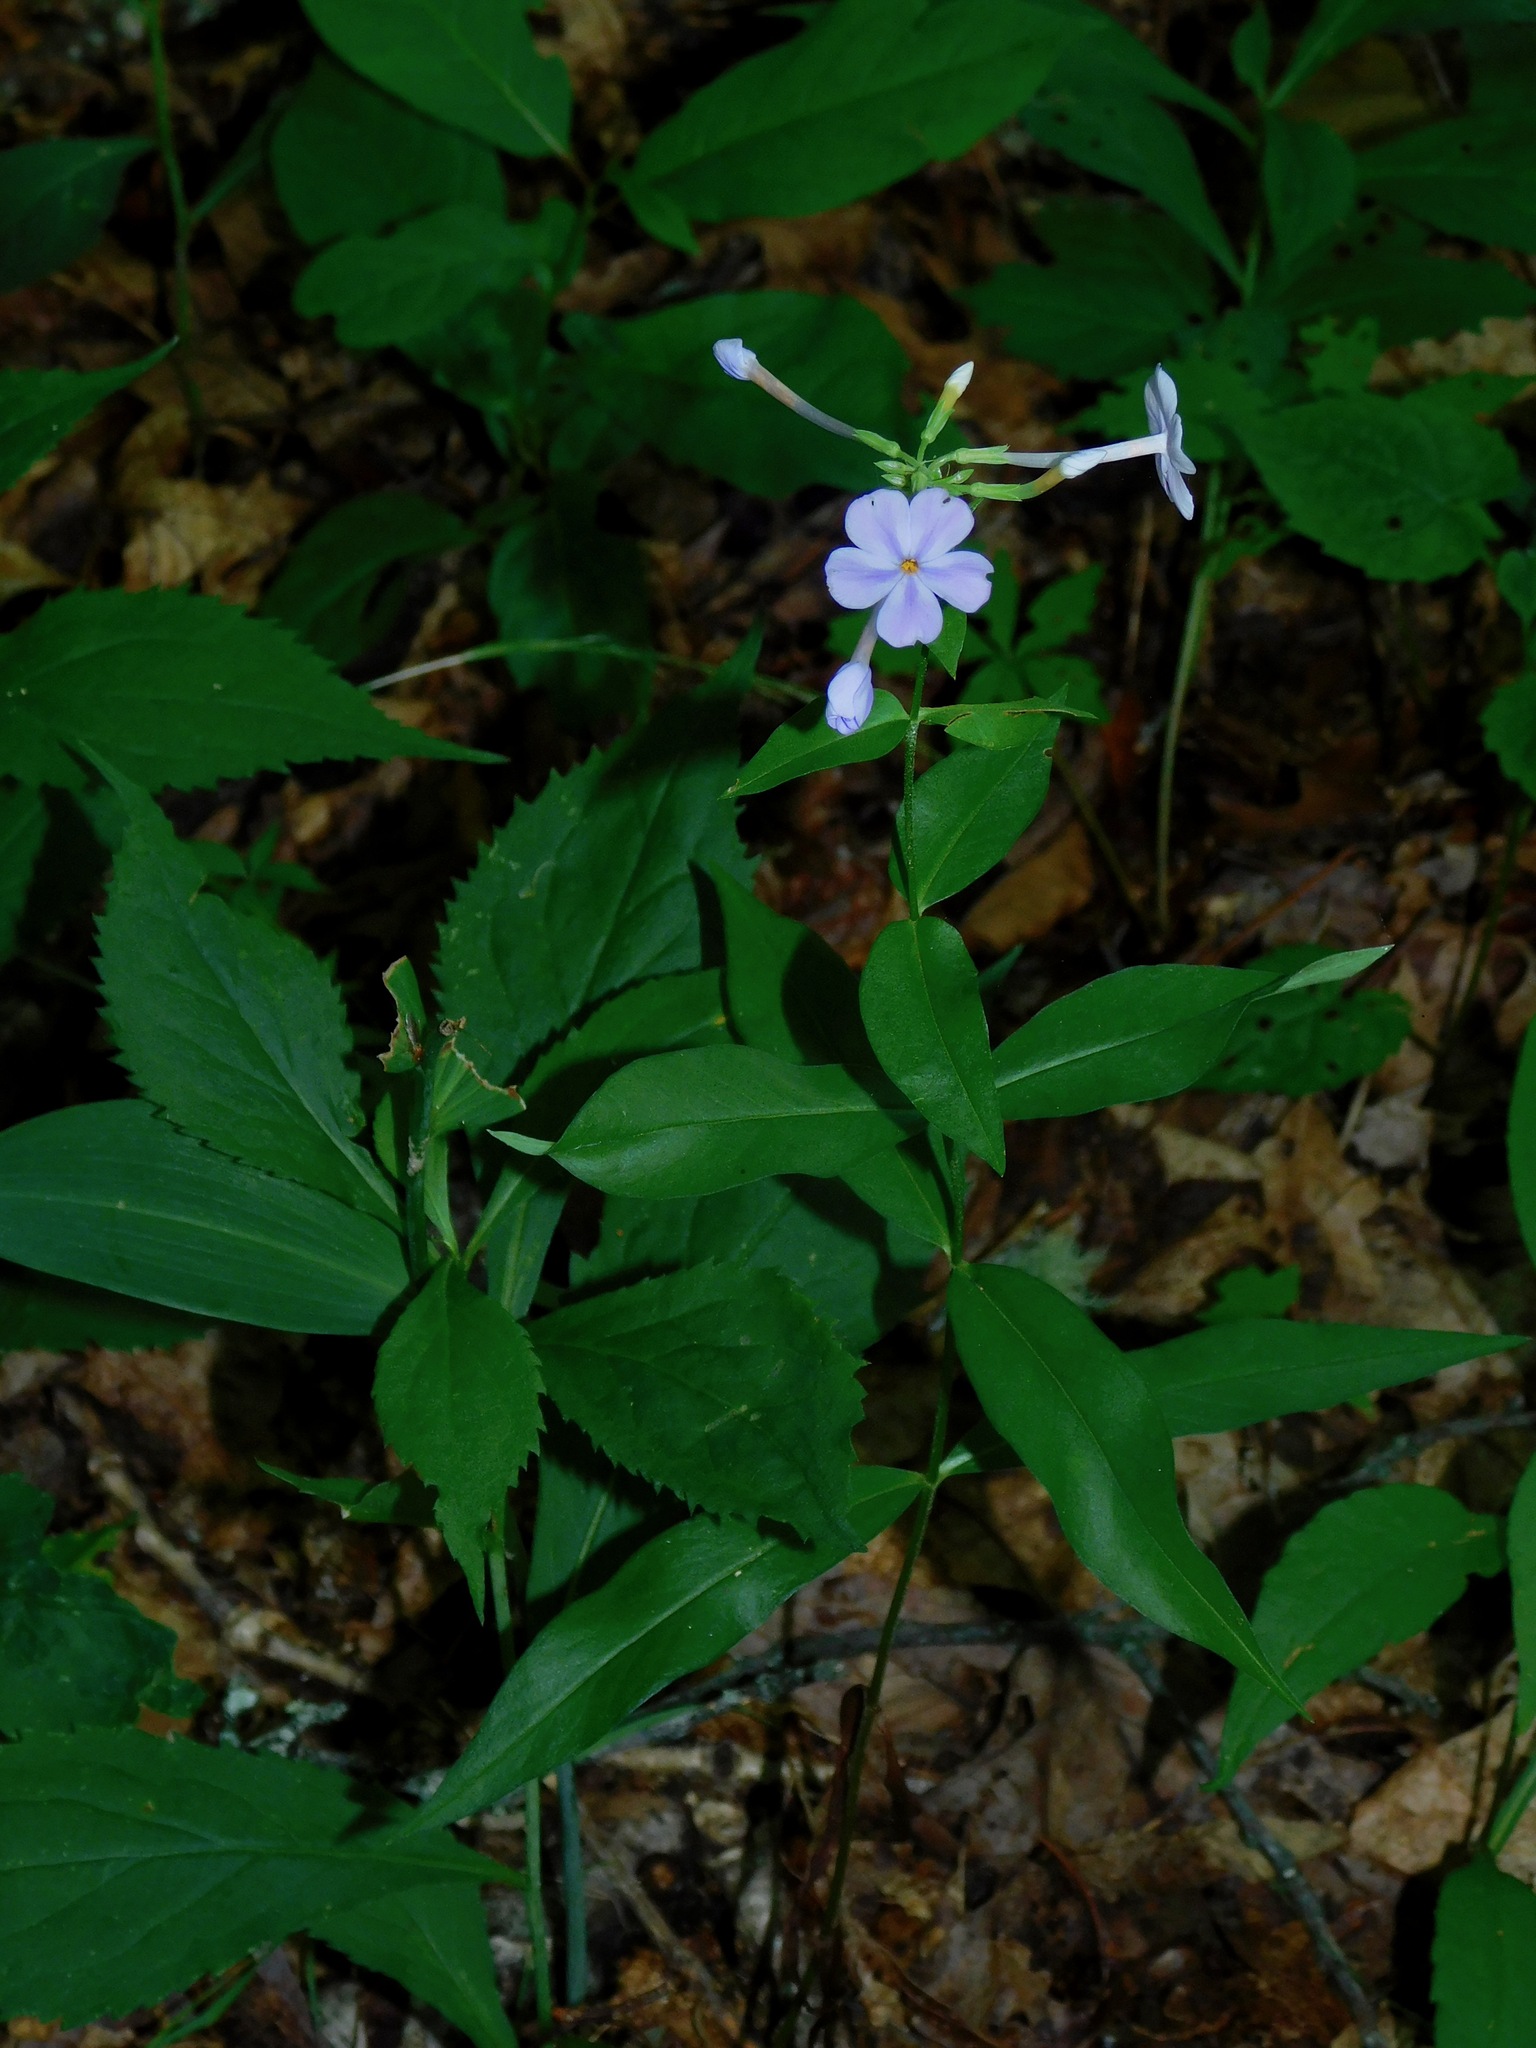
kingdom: Plantae
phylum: Tracheophyta
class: Magnoliopsida
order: Ericales
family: Polemoniaceae
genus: Phlox
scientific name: Phlox carolina
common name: Thick-leaf phlox
